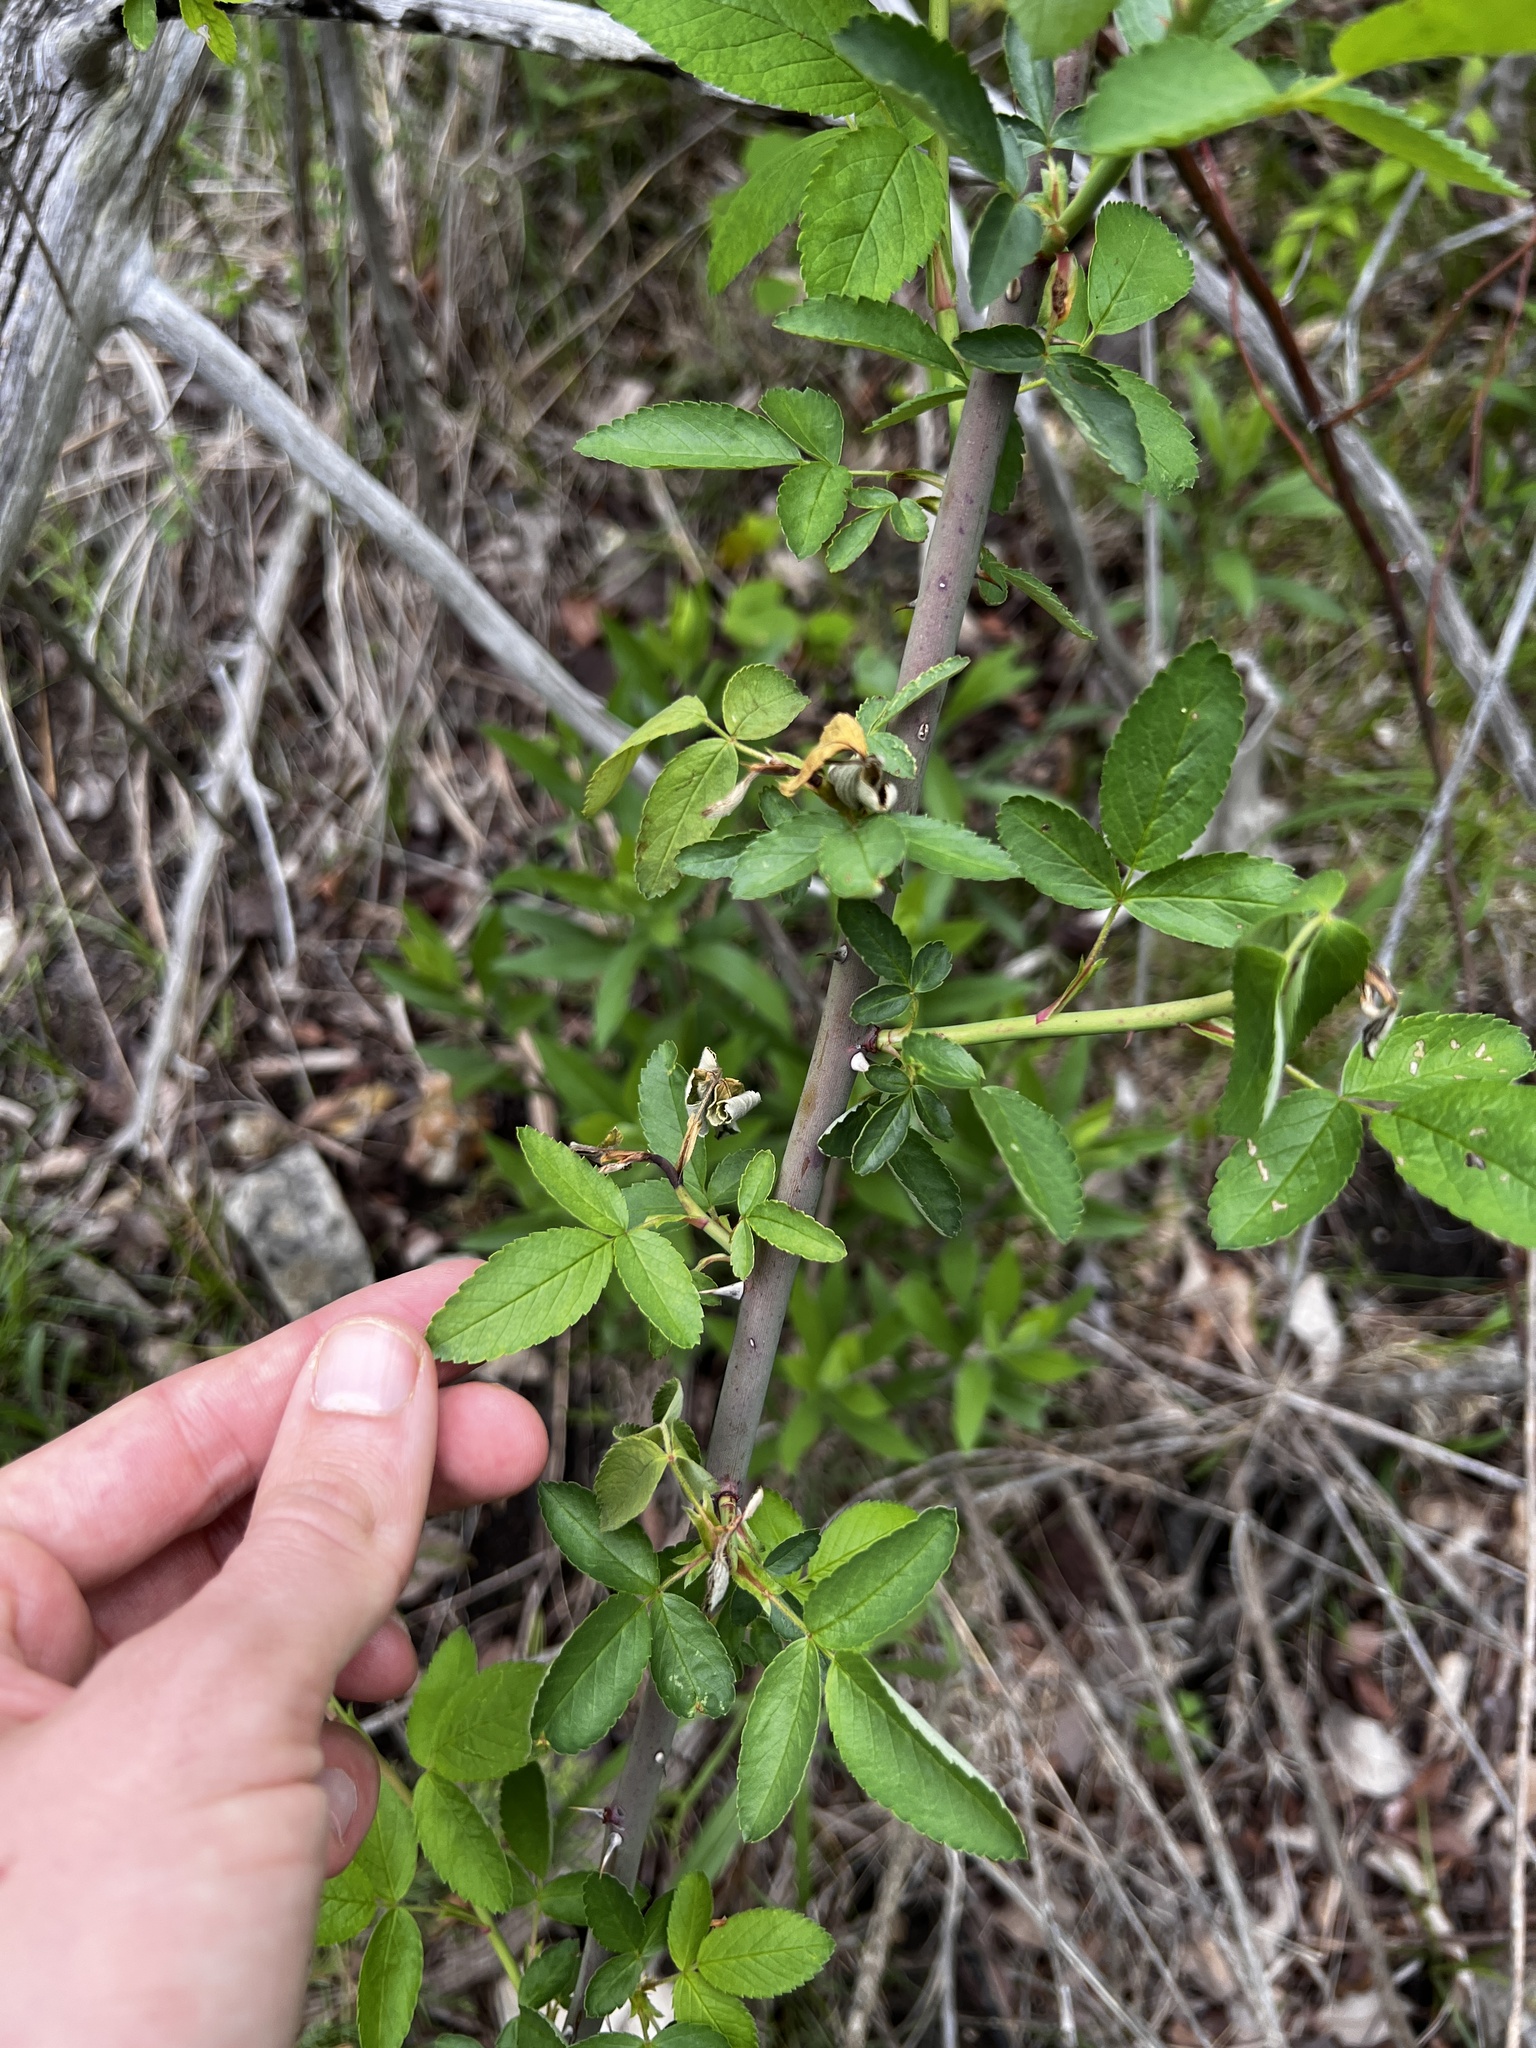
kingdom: Plantae
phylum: Tracheophyta
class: Magnoliopsida
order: Rosales
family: Rosaceae
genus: Rosa
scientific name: Rosa setigera
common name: Prairie rose
